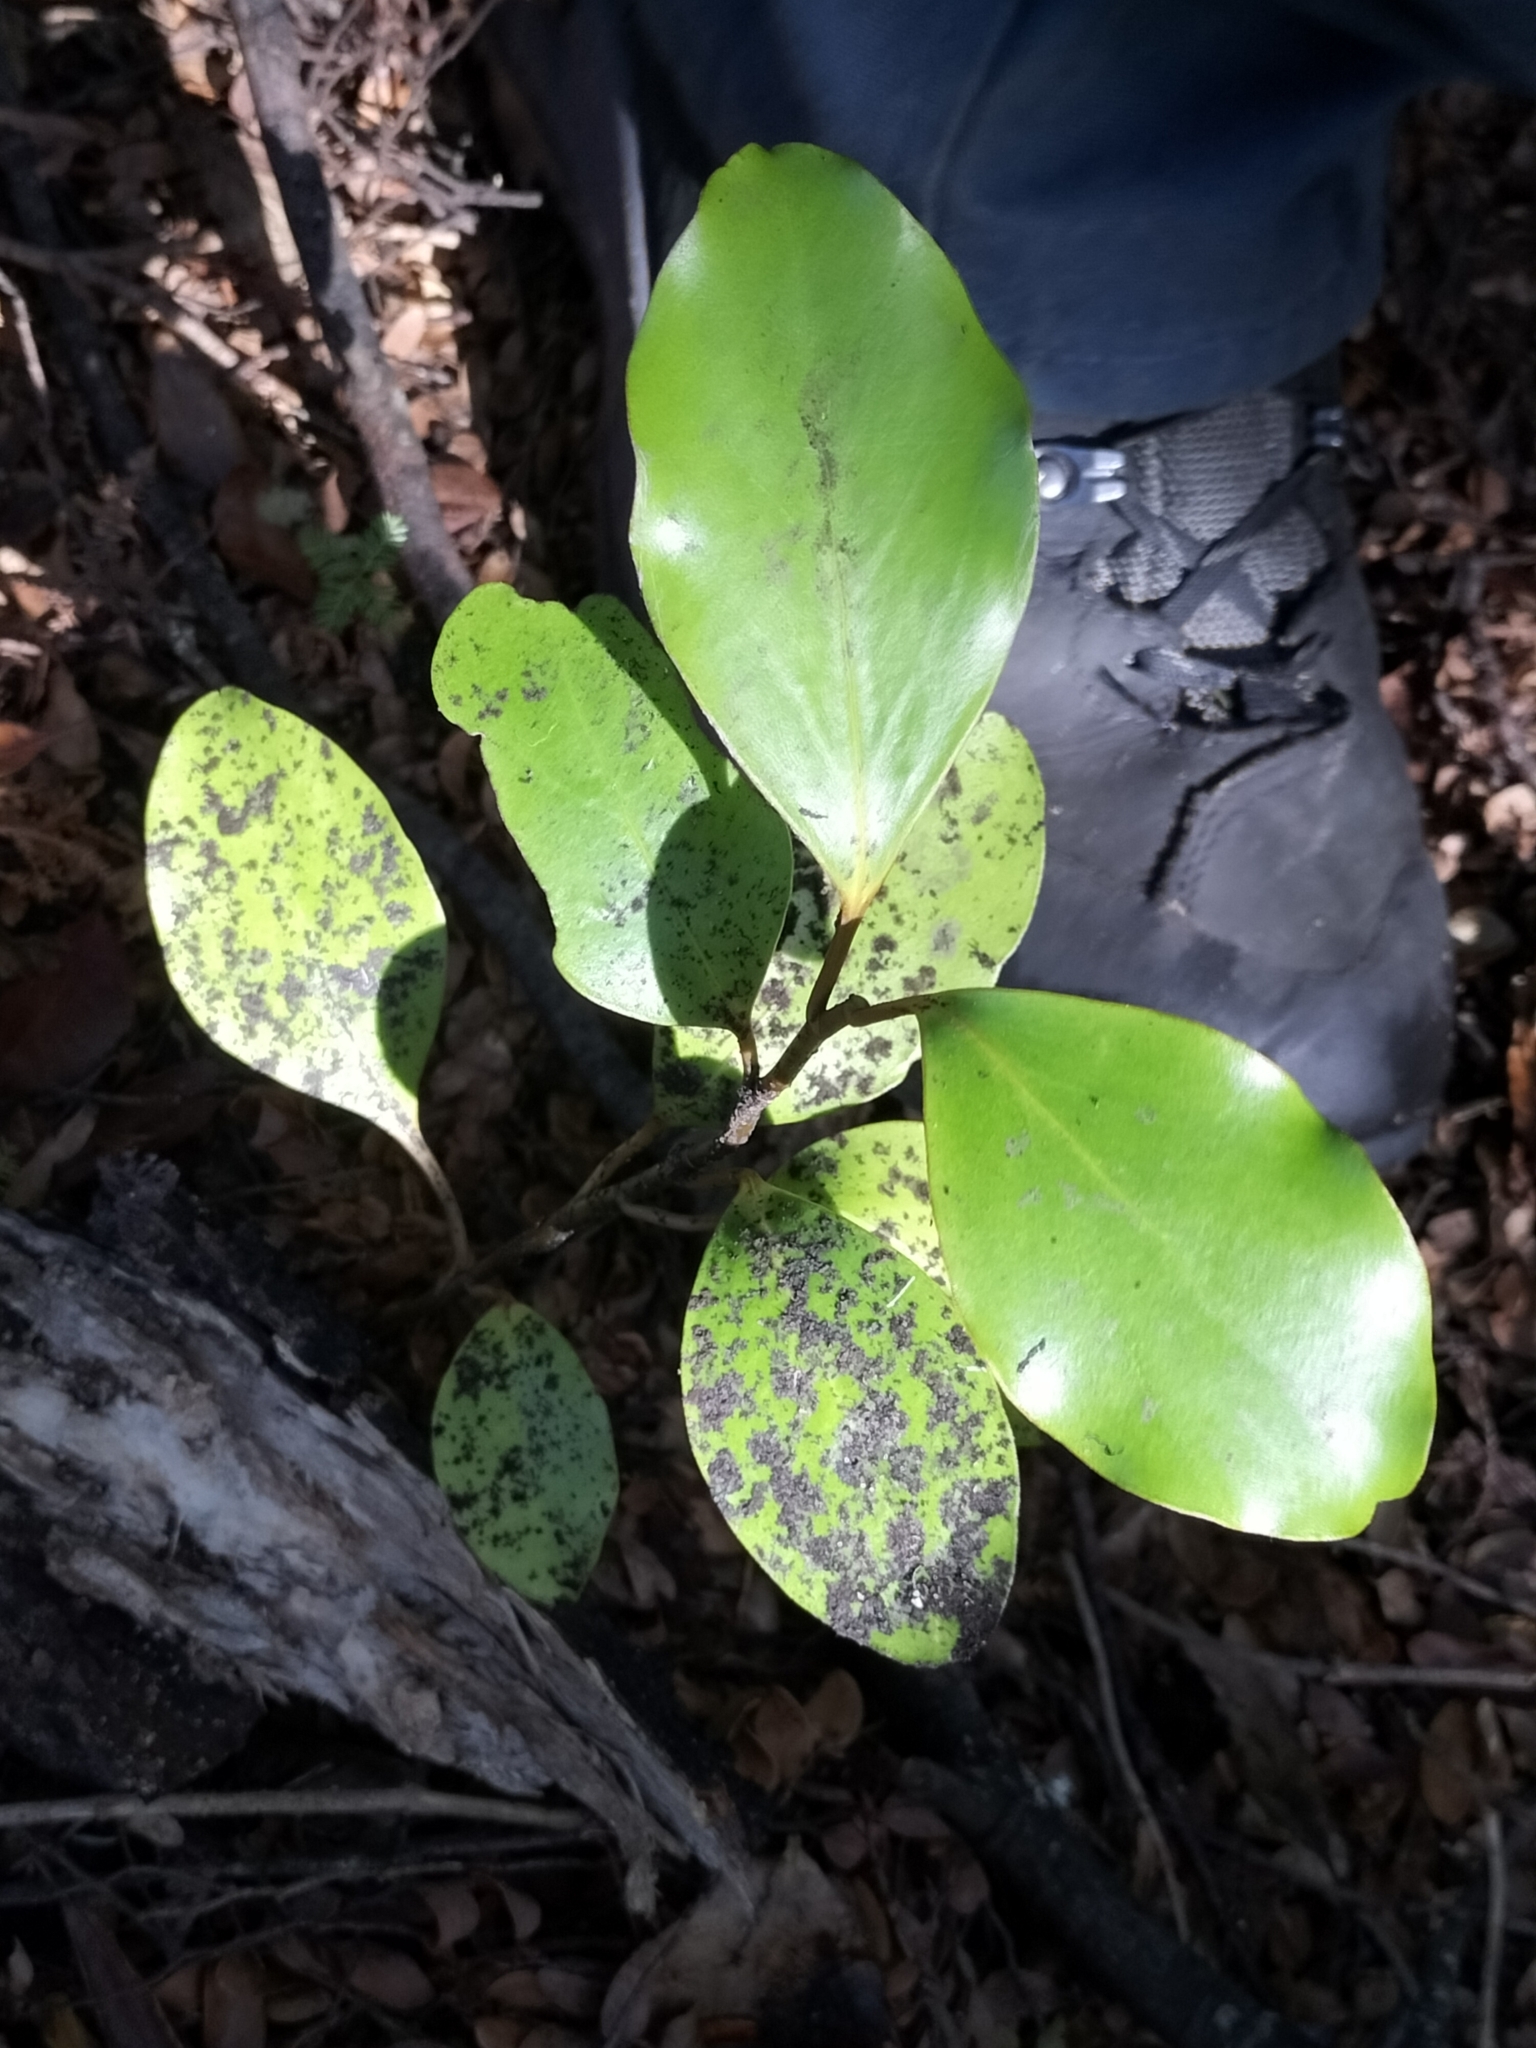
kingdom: Plantae
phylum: Tracheophyta
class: Magnoliopsida
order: Apiales
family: Griseliniaceae
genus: Griselinia
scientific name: Griselinia littoralis
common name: New zealand broadleaf
